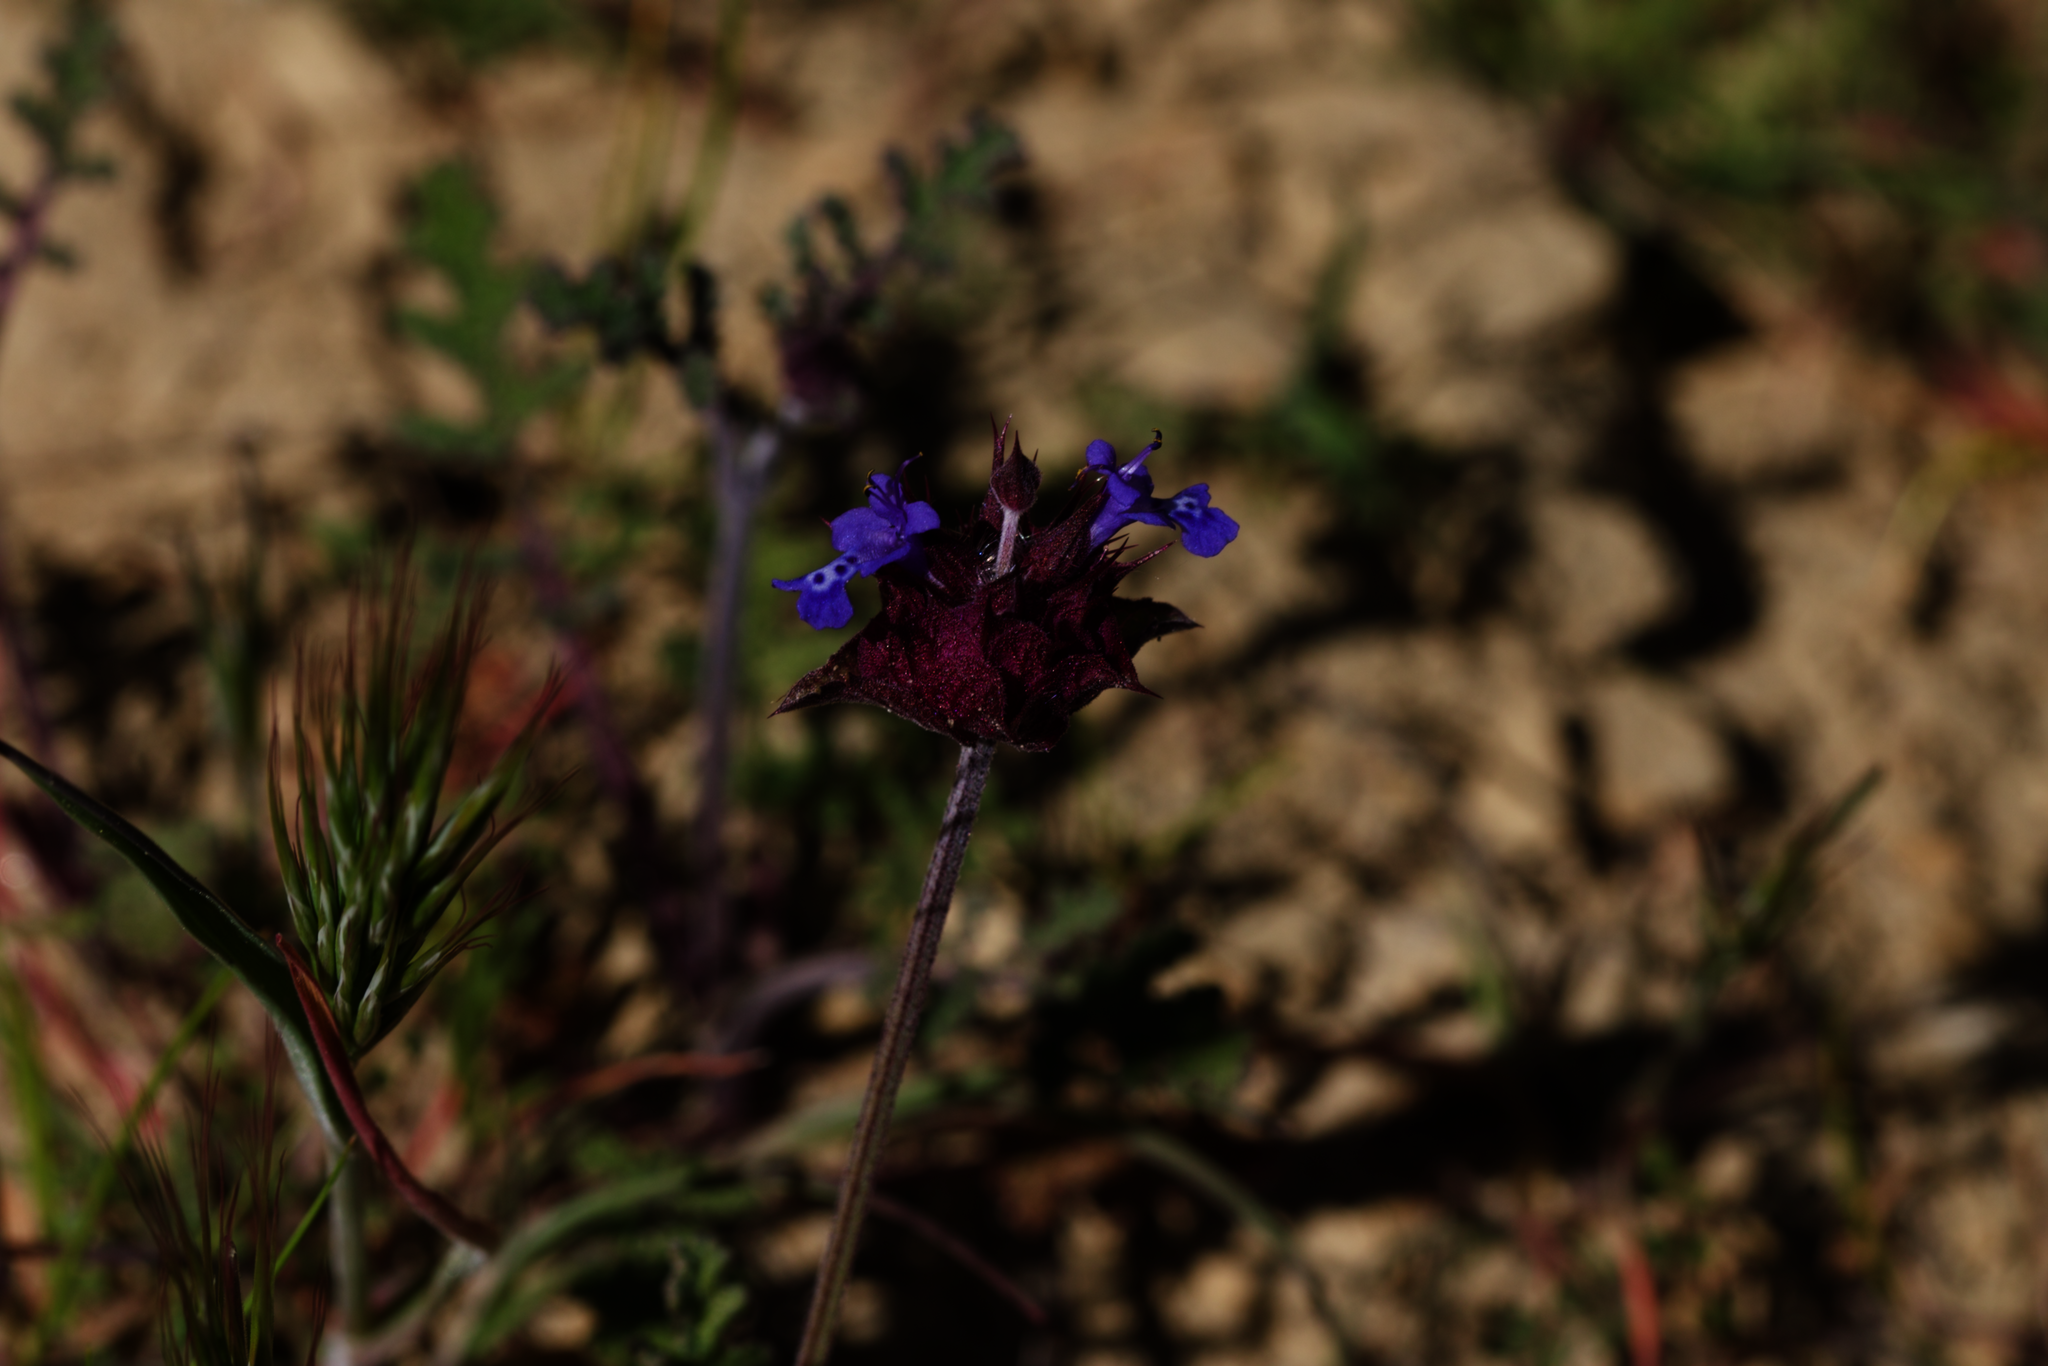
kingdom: Plantae
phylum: Tracheophyta
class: Magnoliopsida
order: Lamiales
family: Lamiaceae
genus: Salvia
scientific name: Salvia columbariae
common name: Chia
